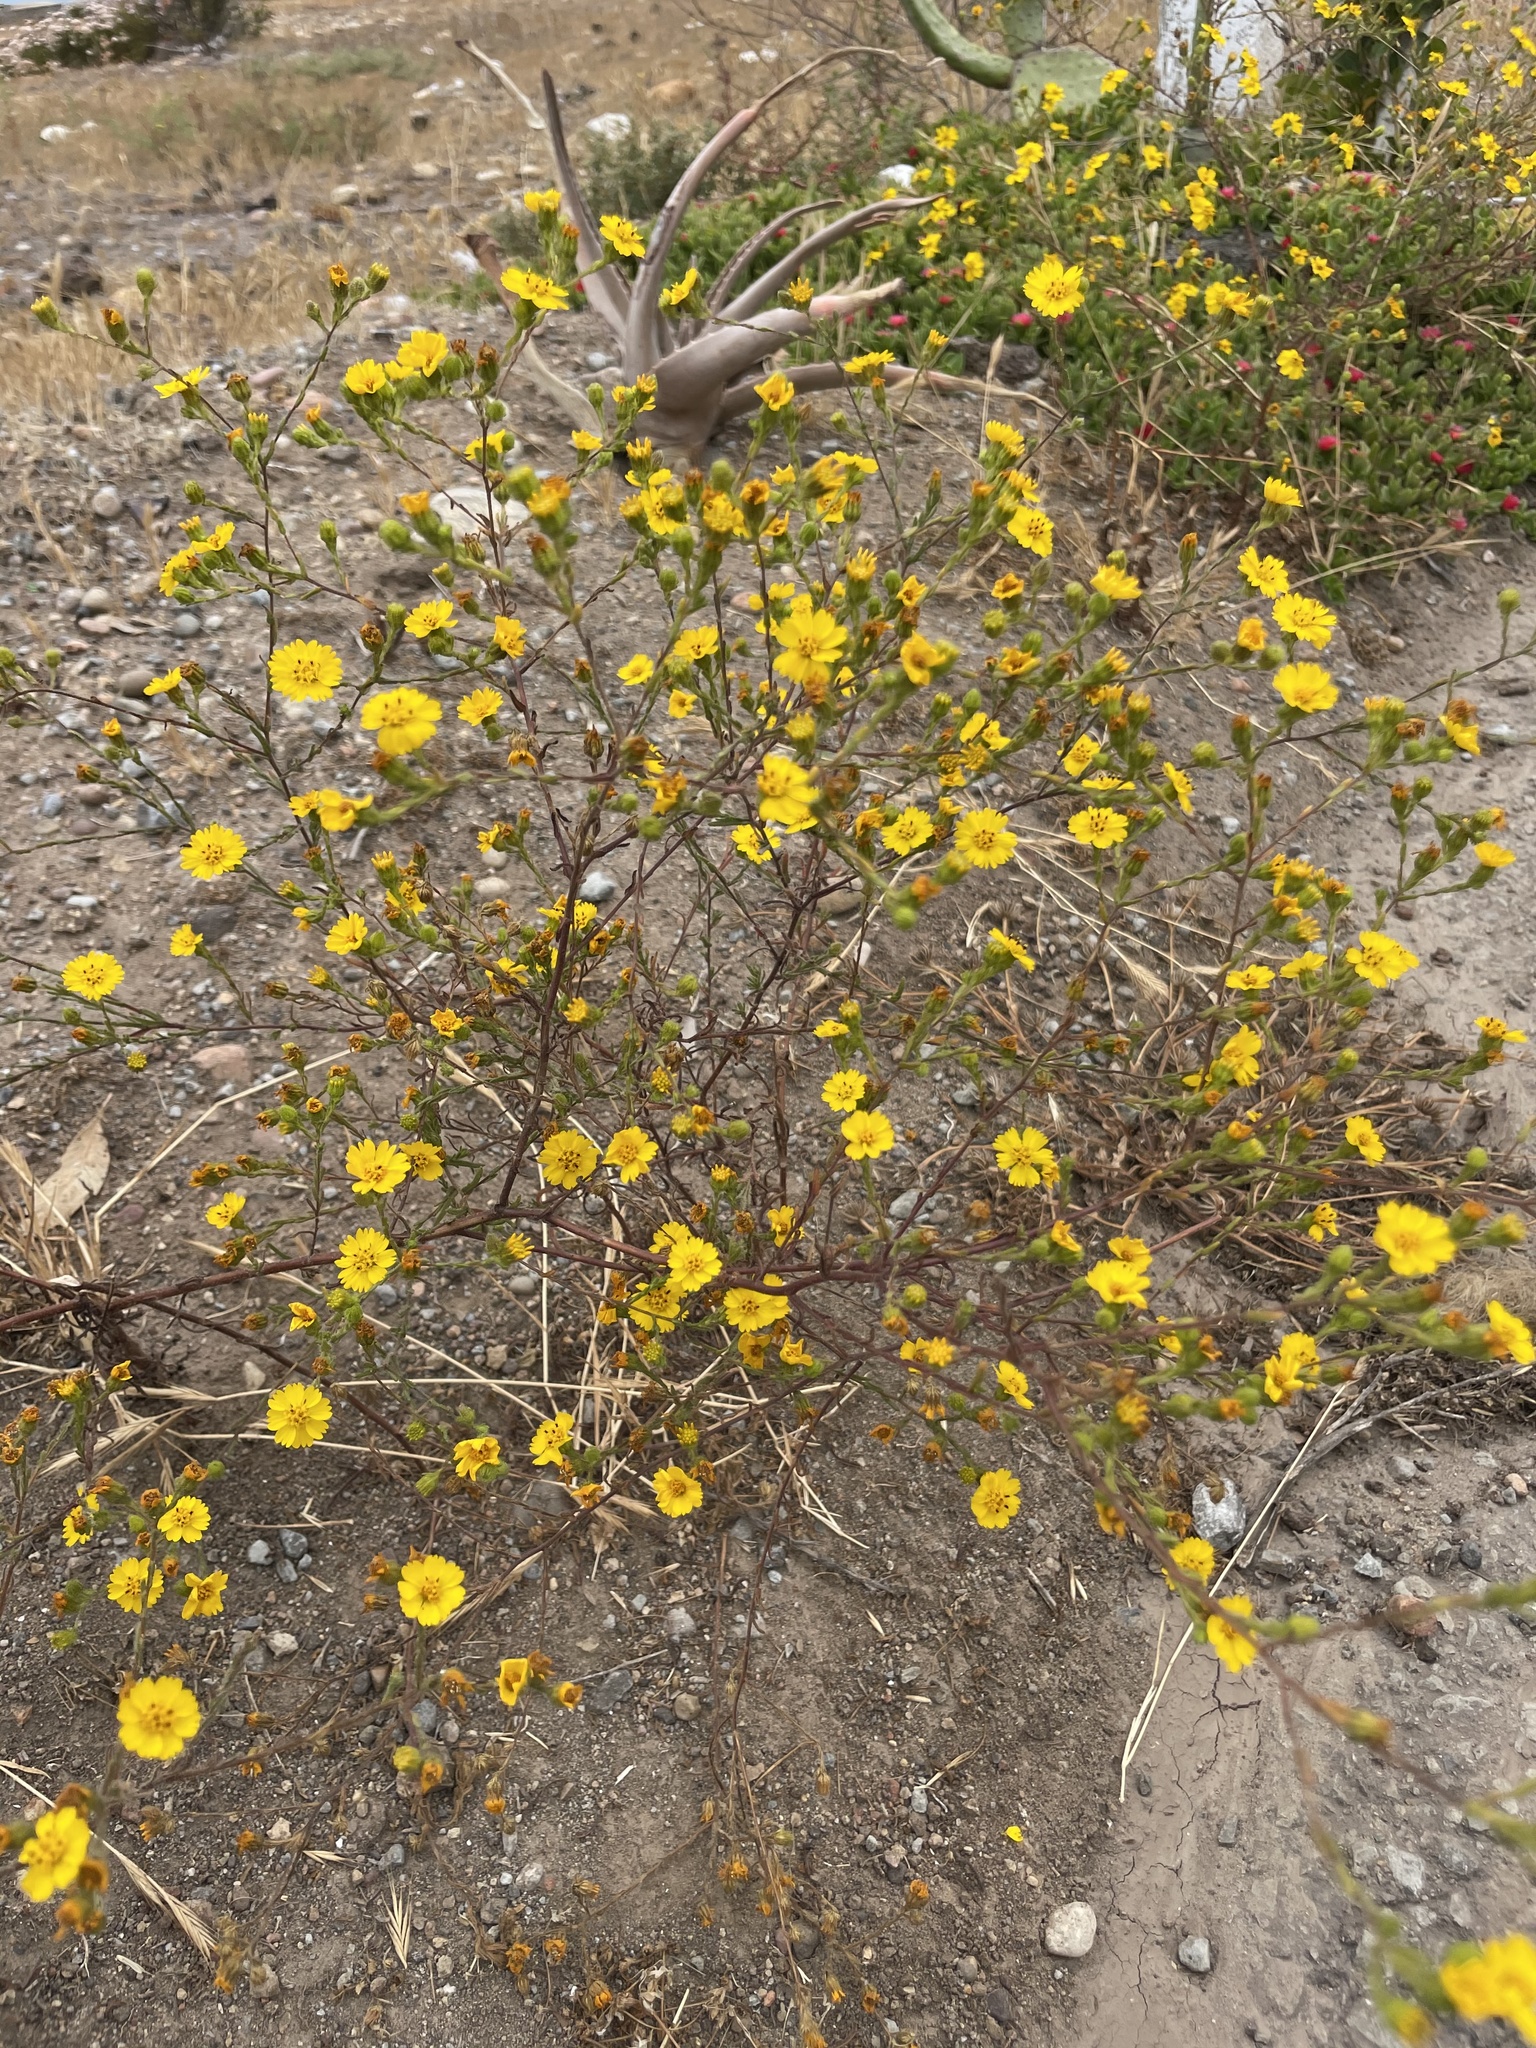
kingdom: Plantae
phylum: Tracheophyta
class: Magnoliopsida
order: Asterales
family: Asteraceae
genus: Deinandra
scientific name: Deinandra conjugens
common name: Otay tarplant
